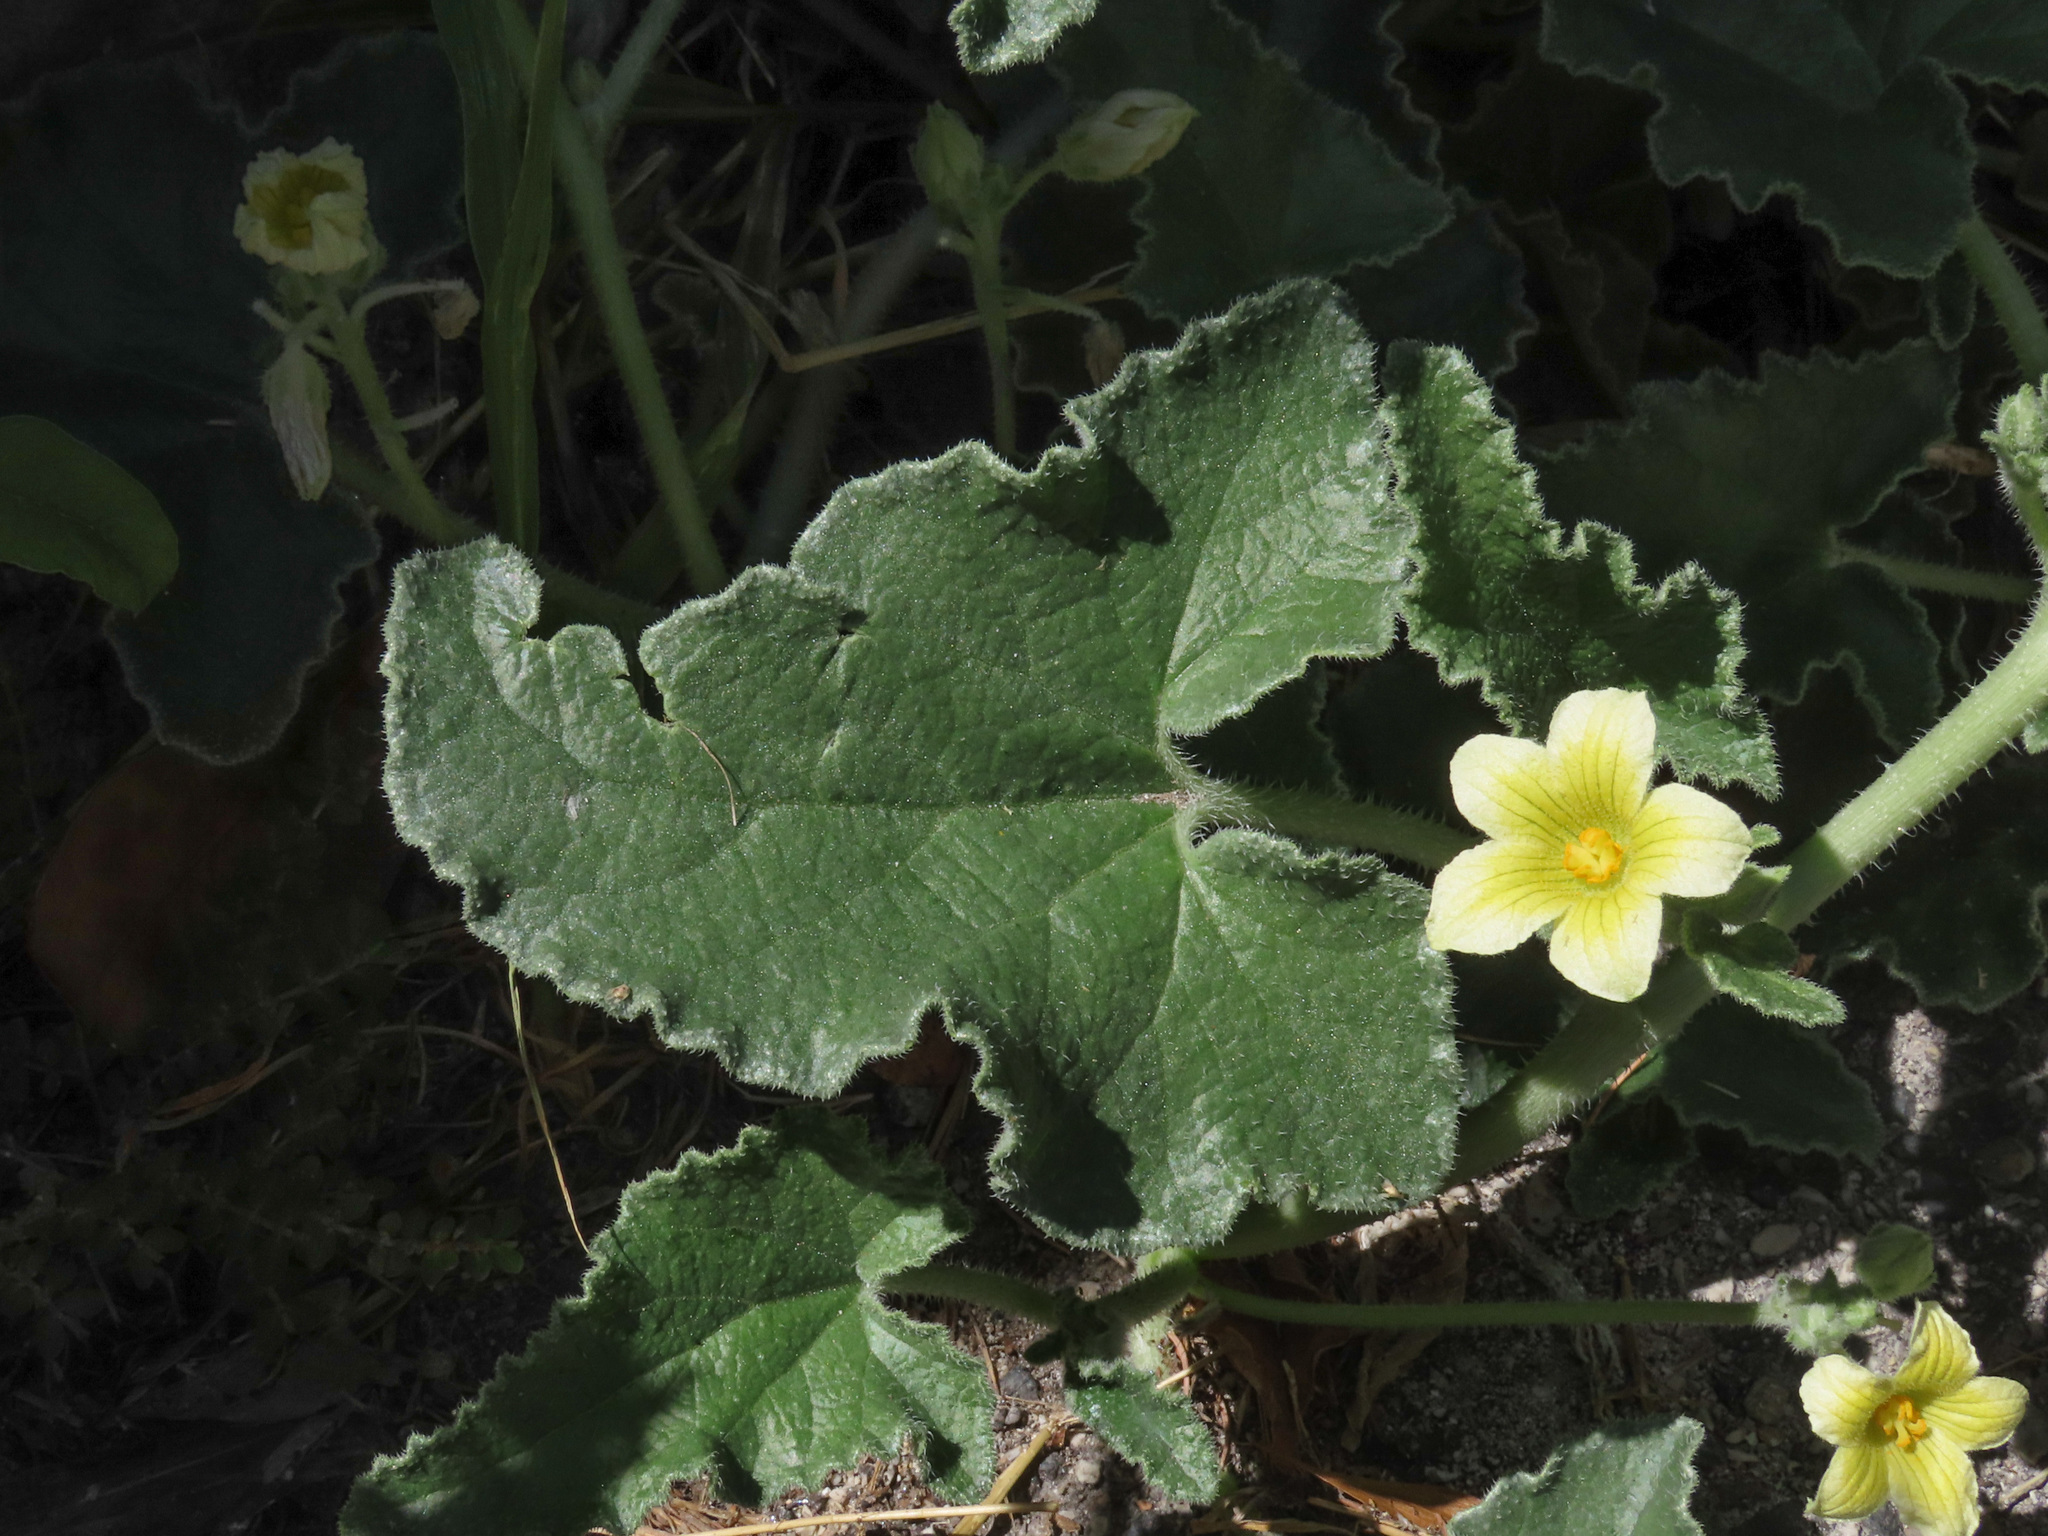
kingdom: Plantae
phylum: Tracheophyta
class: Magnoliopsida
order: Cucurbitales
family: Cucurbitaceae
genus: Ecballium
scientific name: Ecballium elaterium
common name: Squirting cucumber
